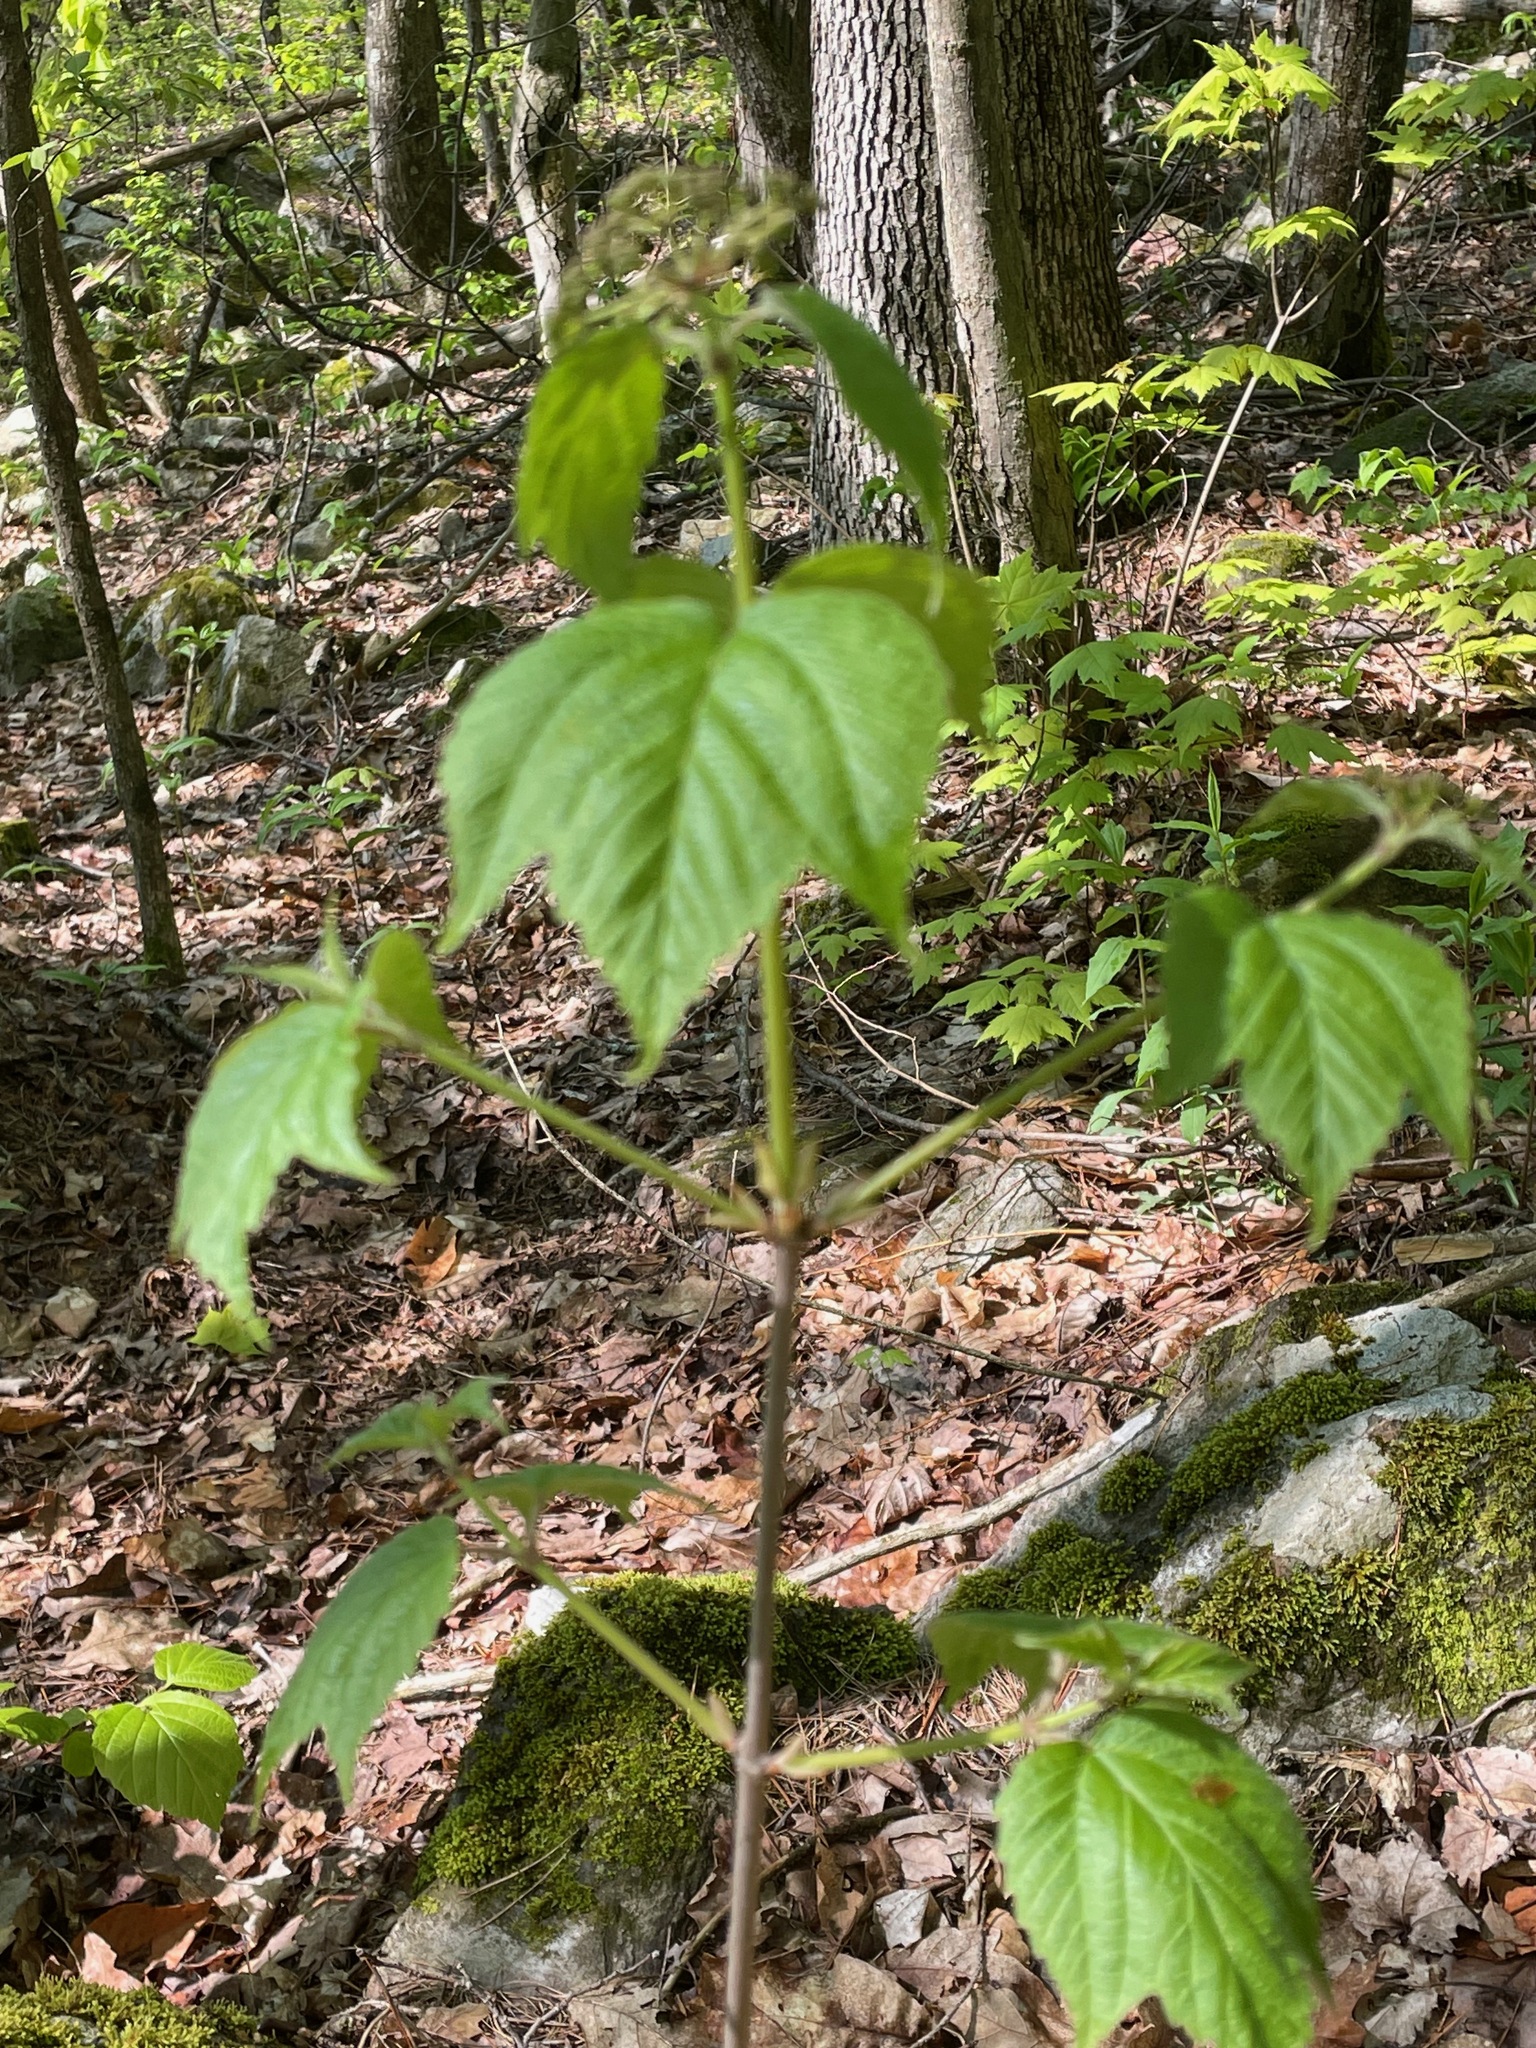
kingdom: Plantae
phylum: Tracheophyta
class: Magnoliopsida
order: Dipsacales
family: Viburnaceae
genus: Viburnum
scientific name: Viburnum acerifolium
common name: Dockmackie
